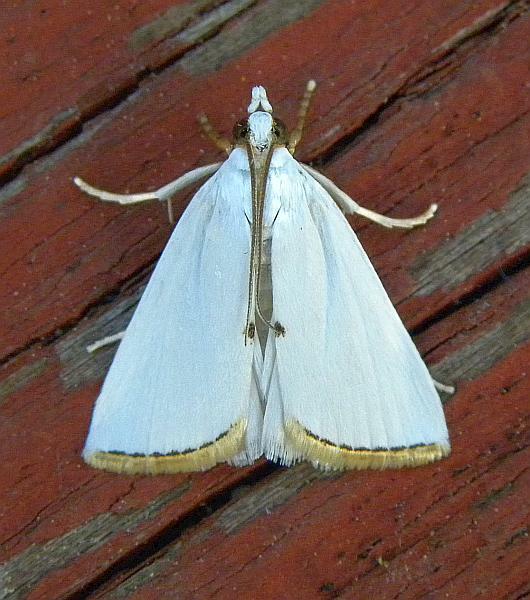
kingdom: Animalia
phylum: Arthropoda
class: Insecta
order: Lepidoptera
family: Crambidae
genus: Argyria
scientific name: Argyria nivalis
